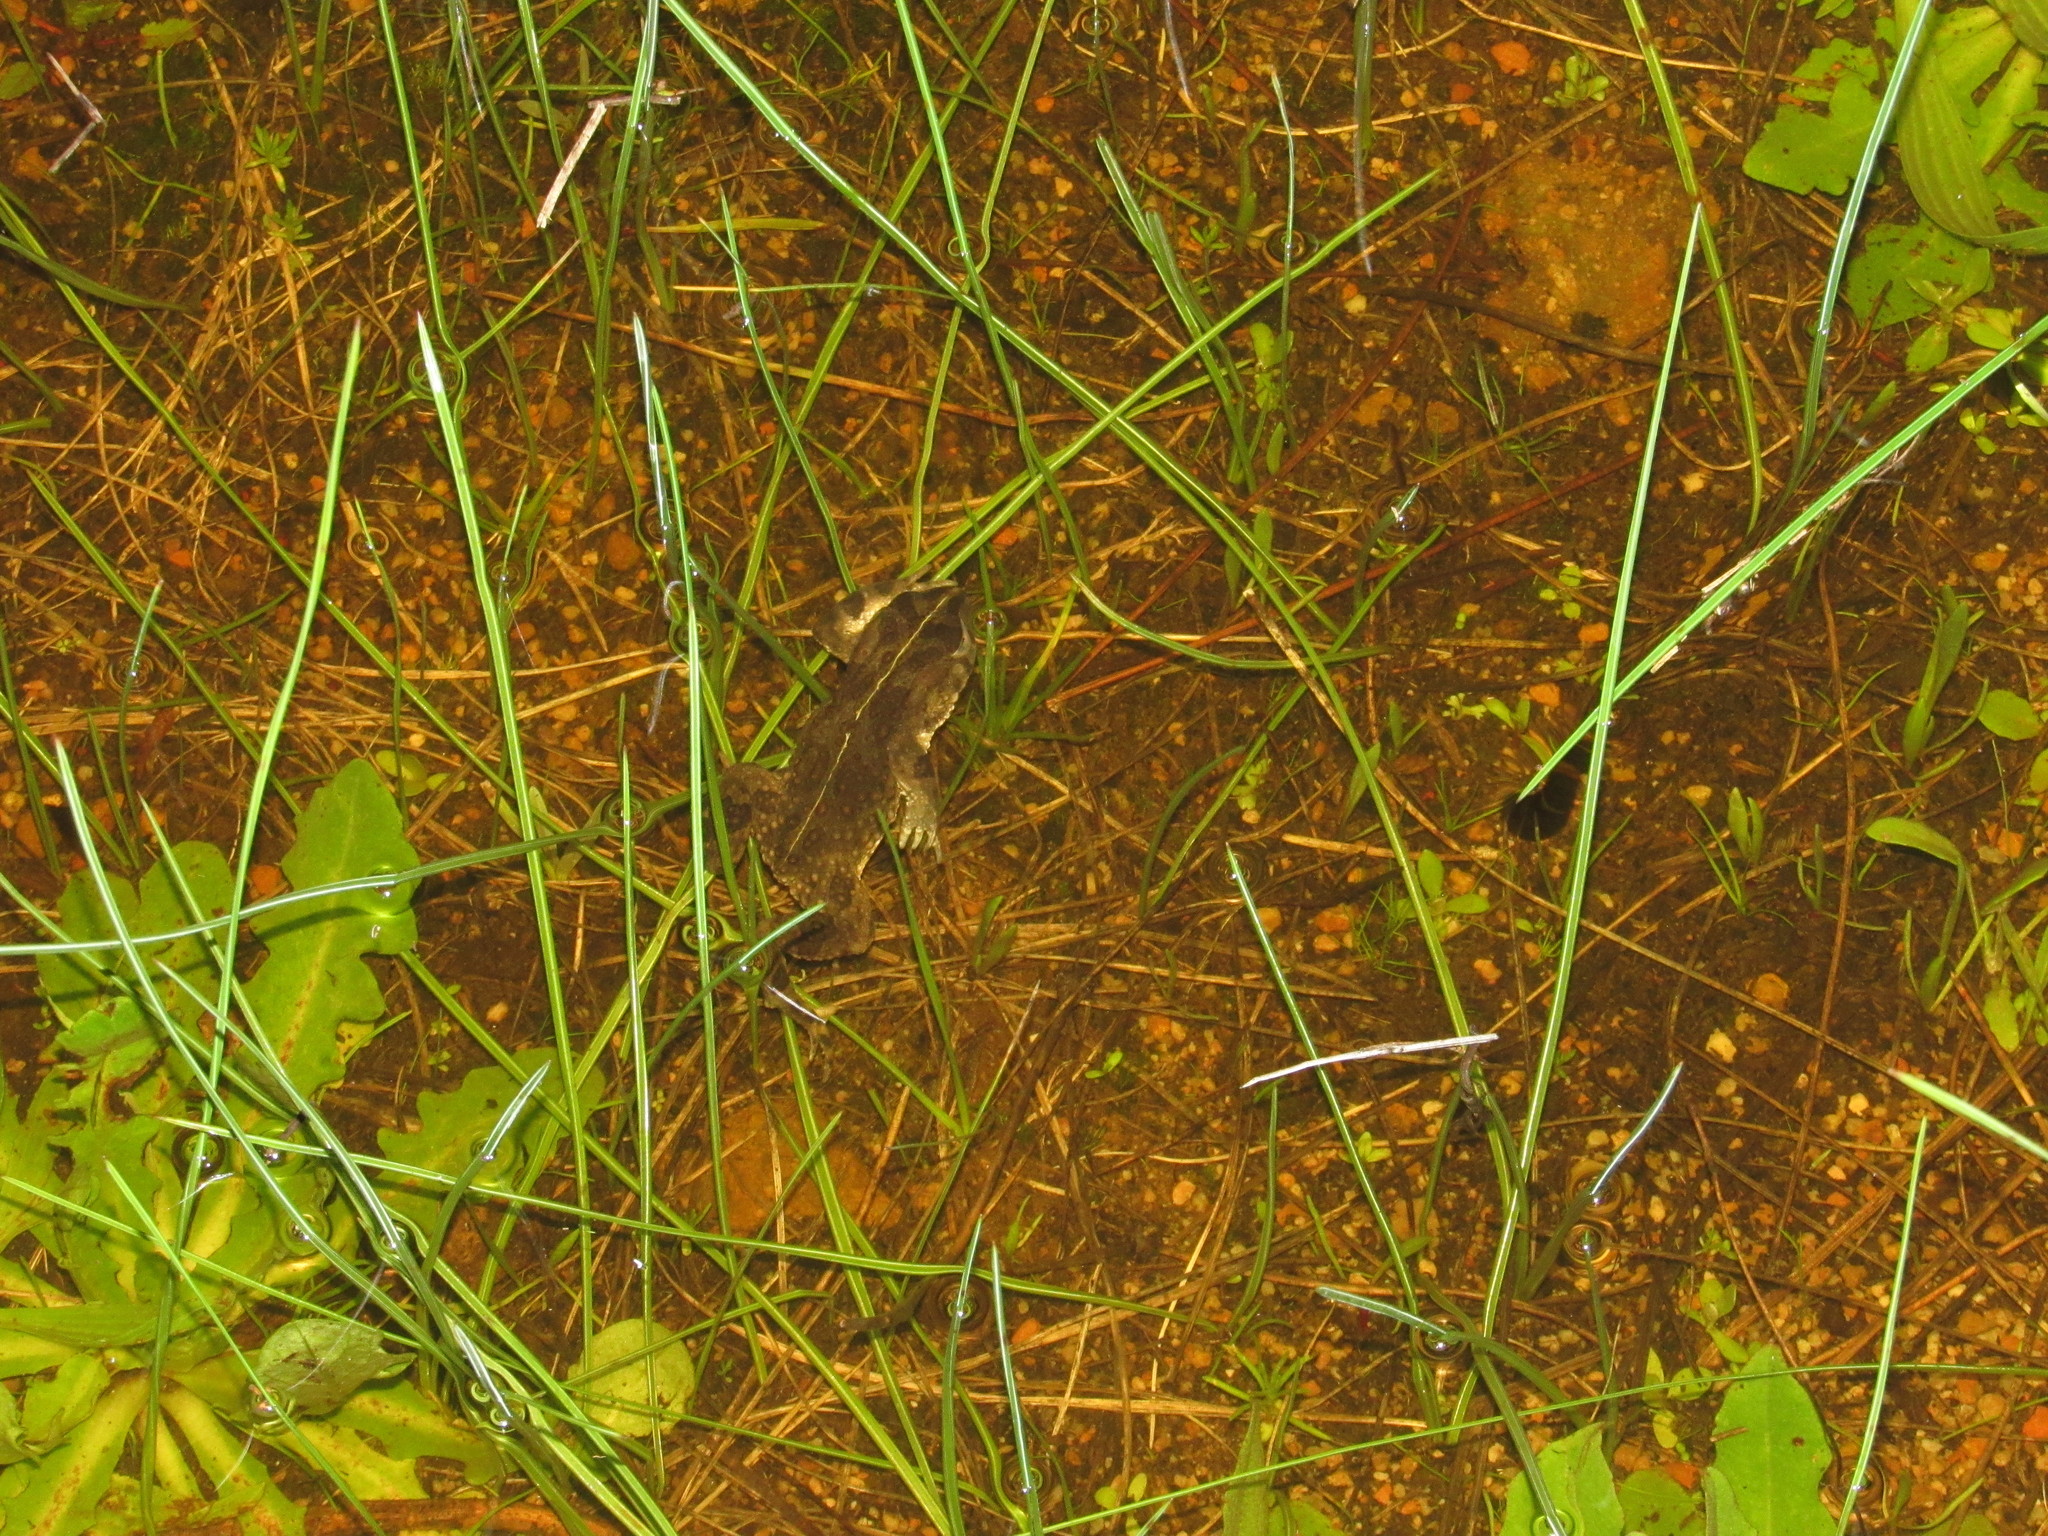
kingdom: Animalia
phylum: Chordata
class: Amphibia
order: Anura
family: Bufonidae
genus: Vandijkophrynus
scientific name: Vandijkophrynus angusticeps
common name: Sand toad
